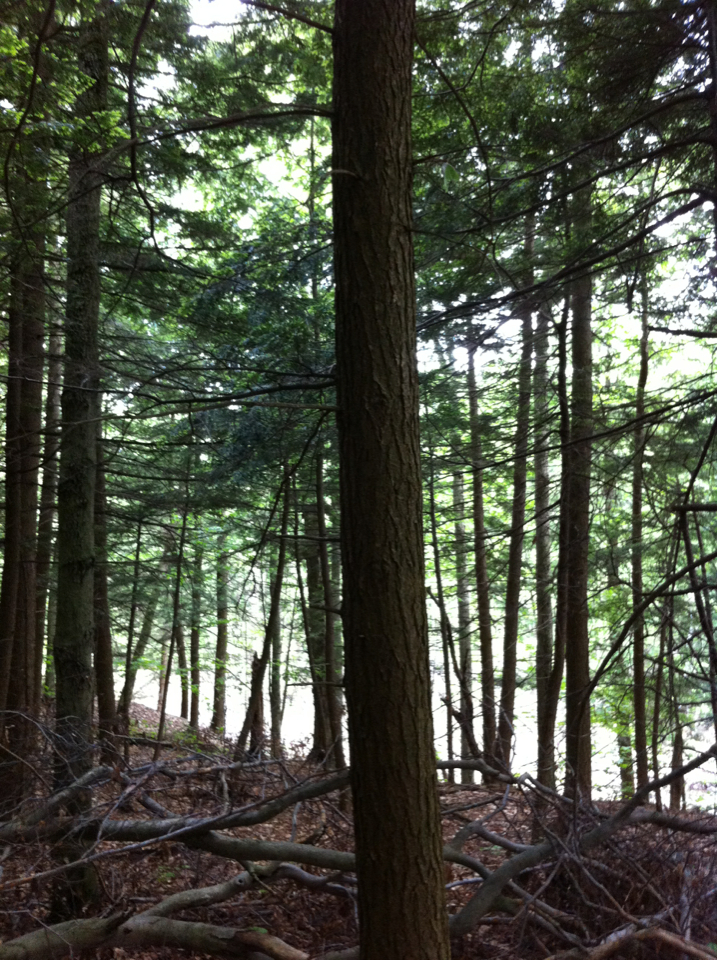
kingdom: Plantae
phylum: Tracheophyta
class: Pinopsida
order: Pinales
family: Pinaceae
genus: Tsuga
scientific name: Tsuga canadensis
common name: Eastern hemlock
